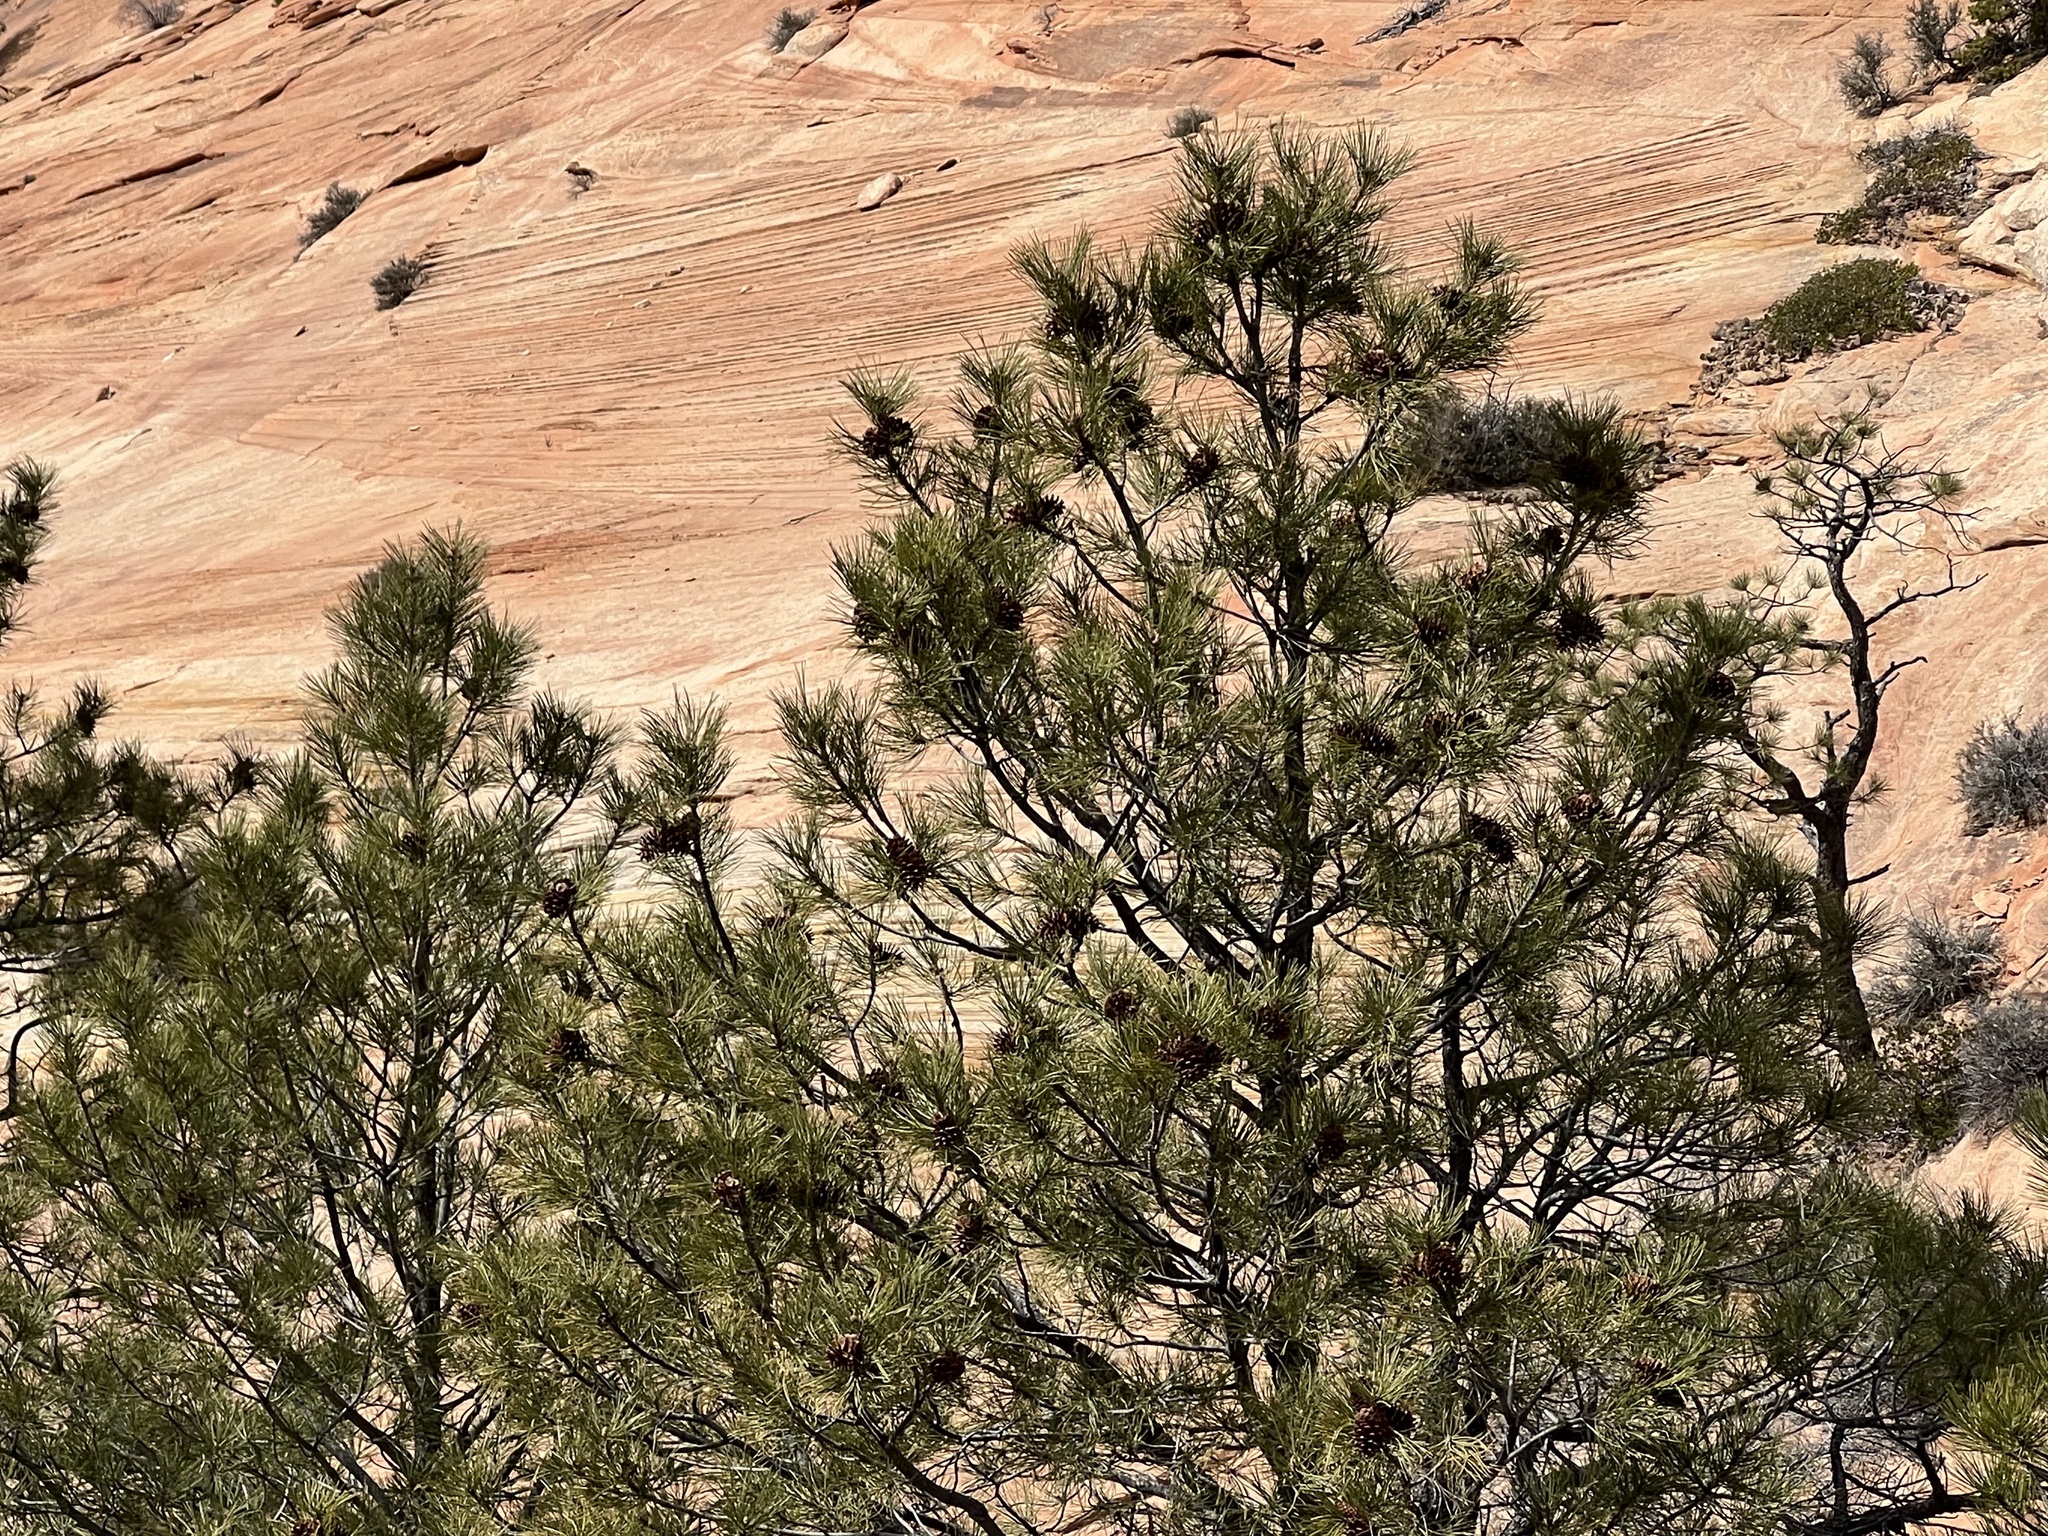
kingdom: Plantae
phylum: Tracheophyta
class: Pinopsida
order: Pinales
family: Pinaceae
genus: Pinus
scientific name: Pinus ponderosa
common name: Western yellow-pine
